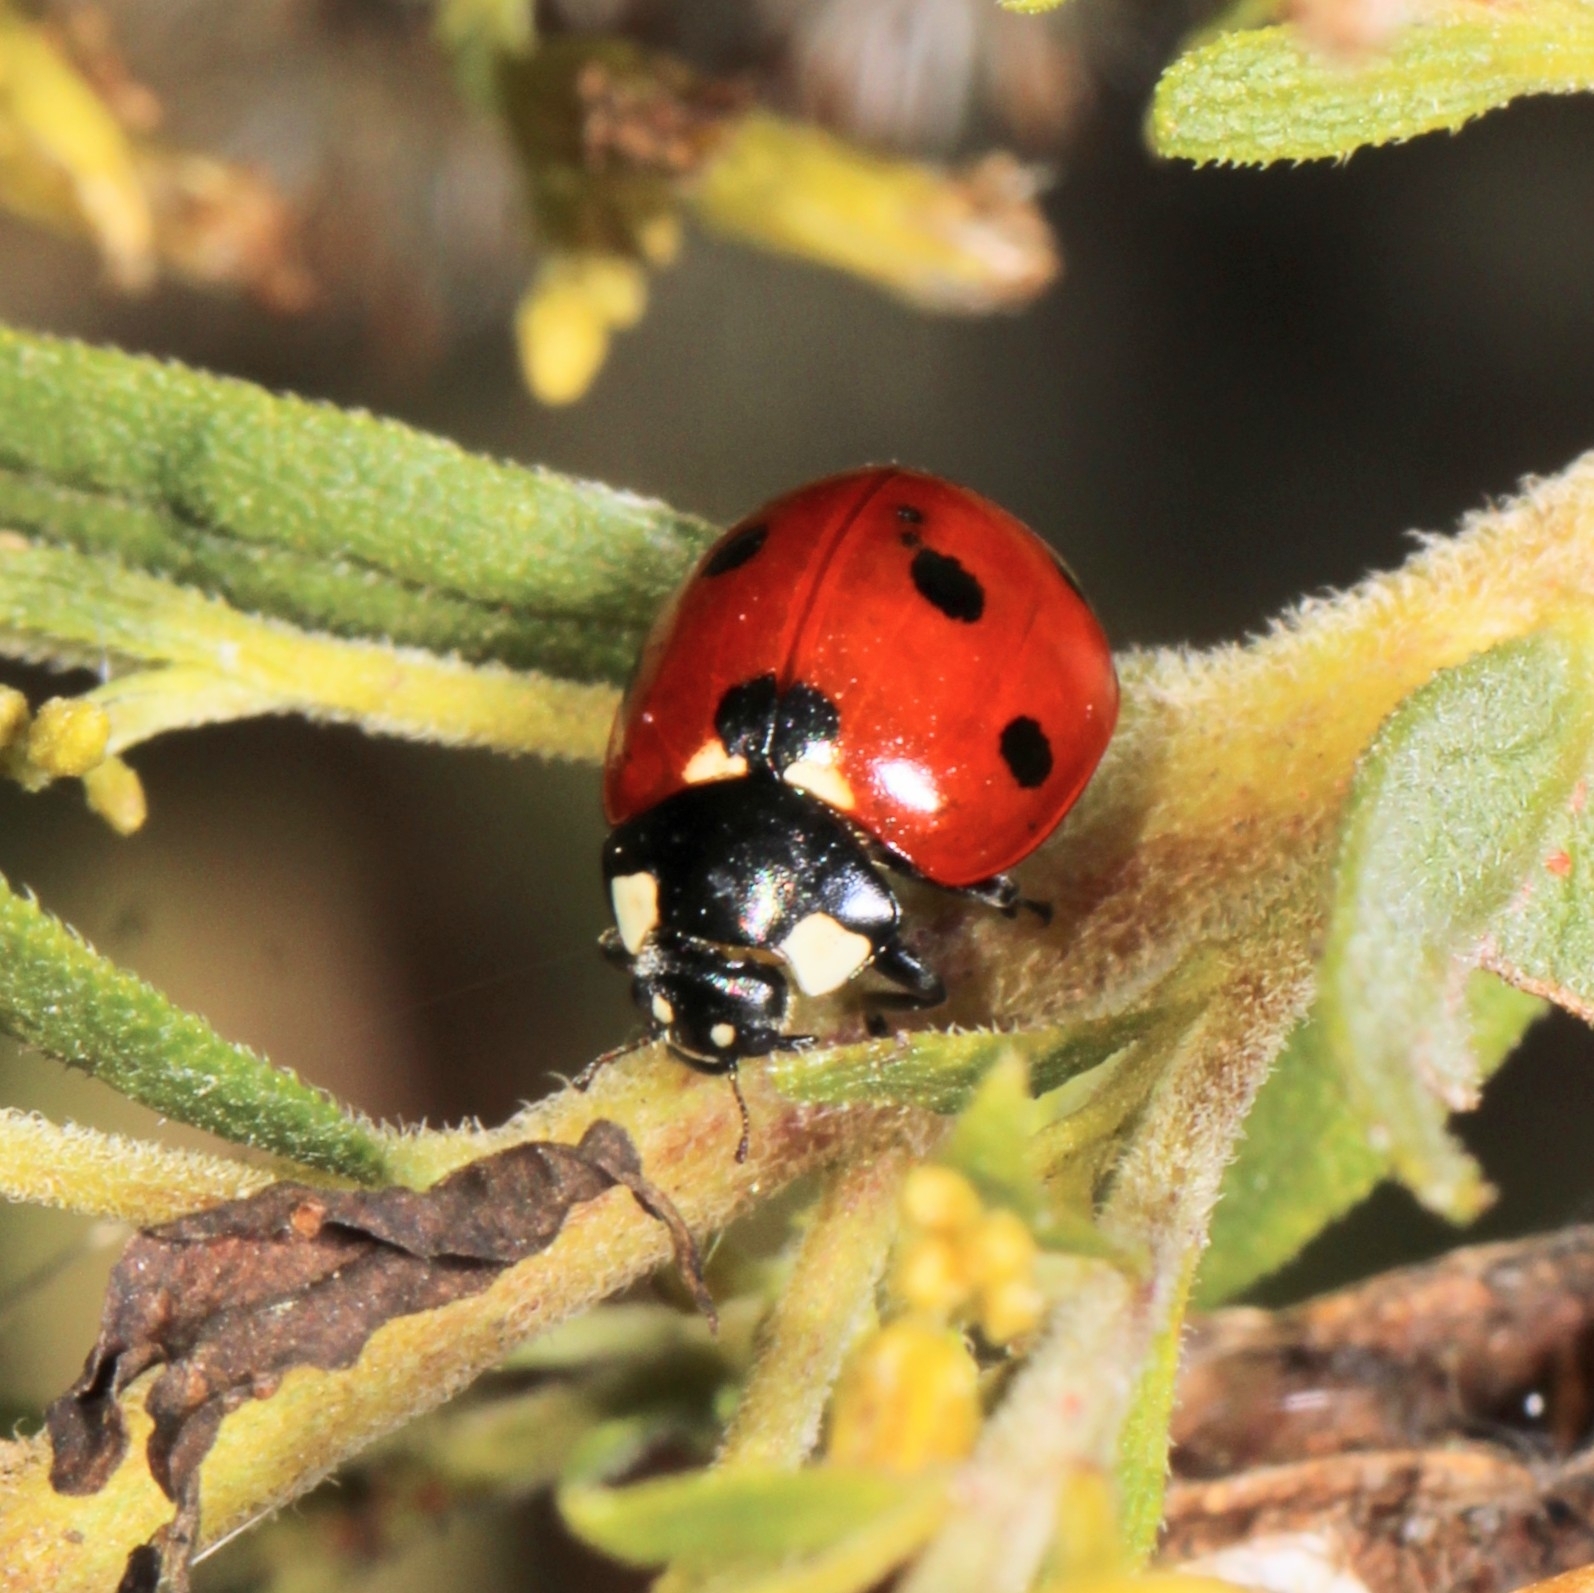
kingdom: Animalia
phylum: Arthropoda
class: Insecta
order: Coleoptera
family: Coccinellidae
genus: Coccinella
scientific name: Coccinella septempunctata
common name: Sevenspotted lady beetle
